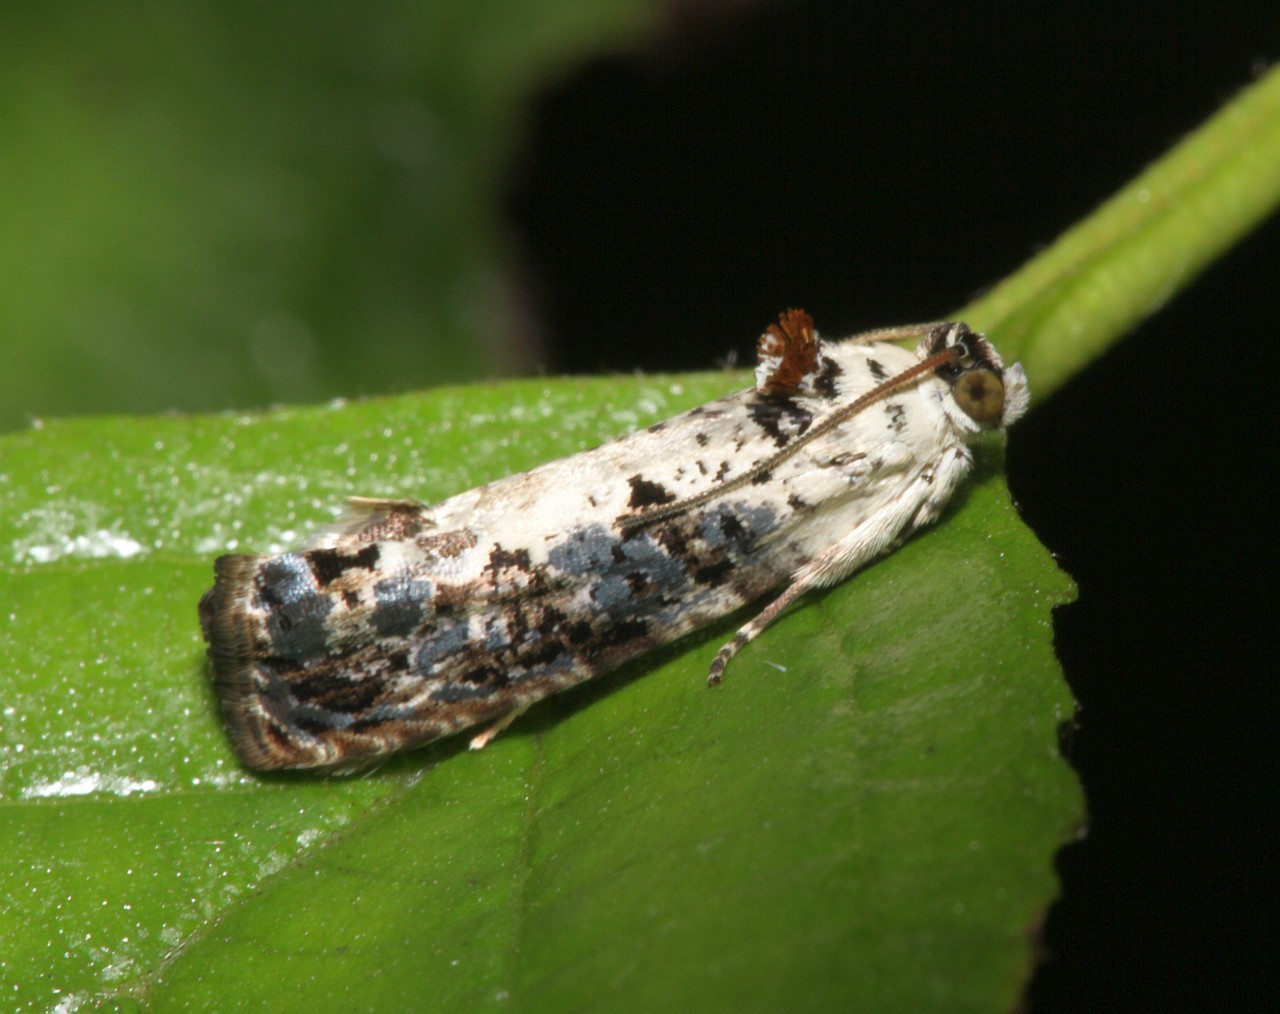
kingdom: Animalia
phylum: Arthropoda
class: Insecta
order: Lepidoptera
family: Tortricidae
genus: Hedya
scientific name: Hedya salicella
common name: Large tortricid moth
